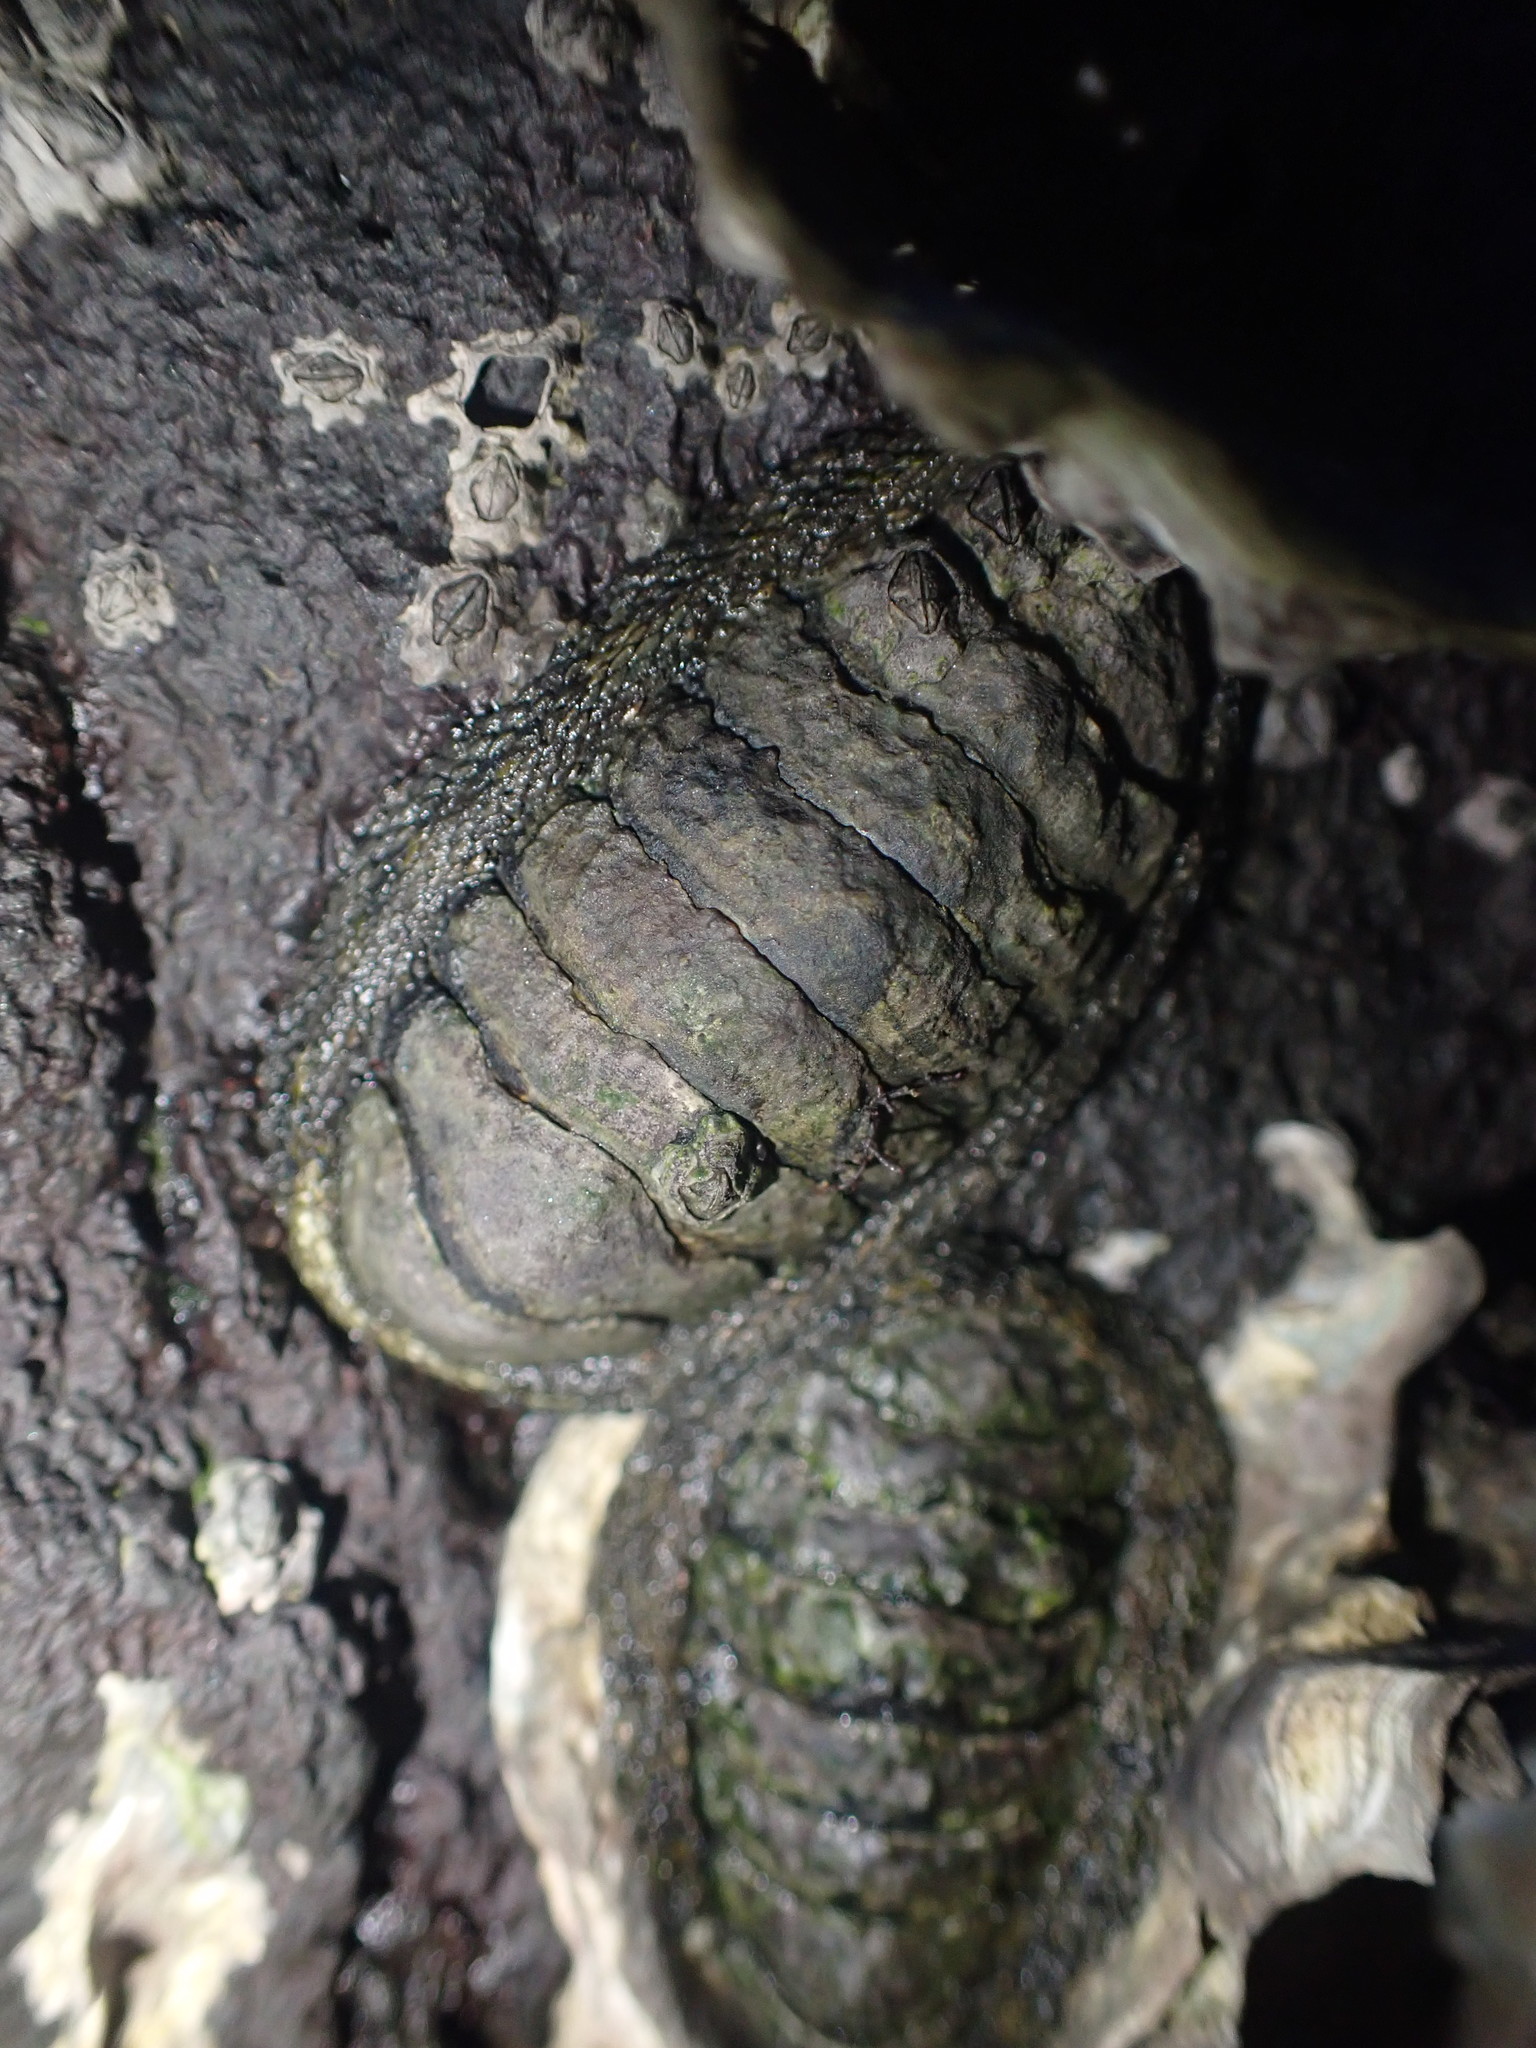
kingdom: Animalia
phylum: Mollusca
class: Polyplacophora
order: Chitonida
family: Chitonidae
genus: Sypharochiton
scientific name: Sypharochiton pelliserpentis
